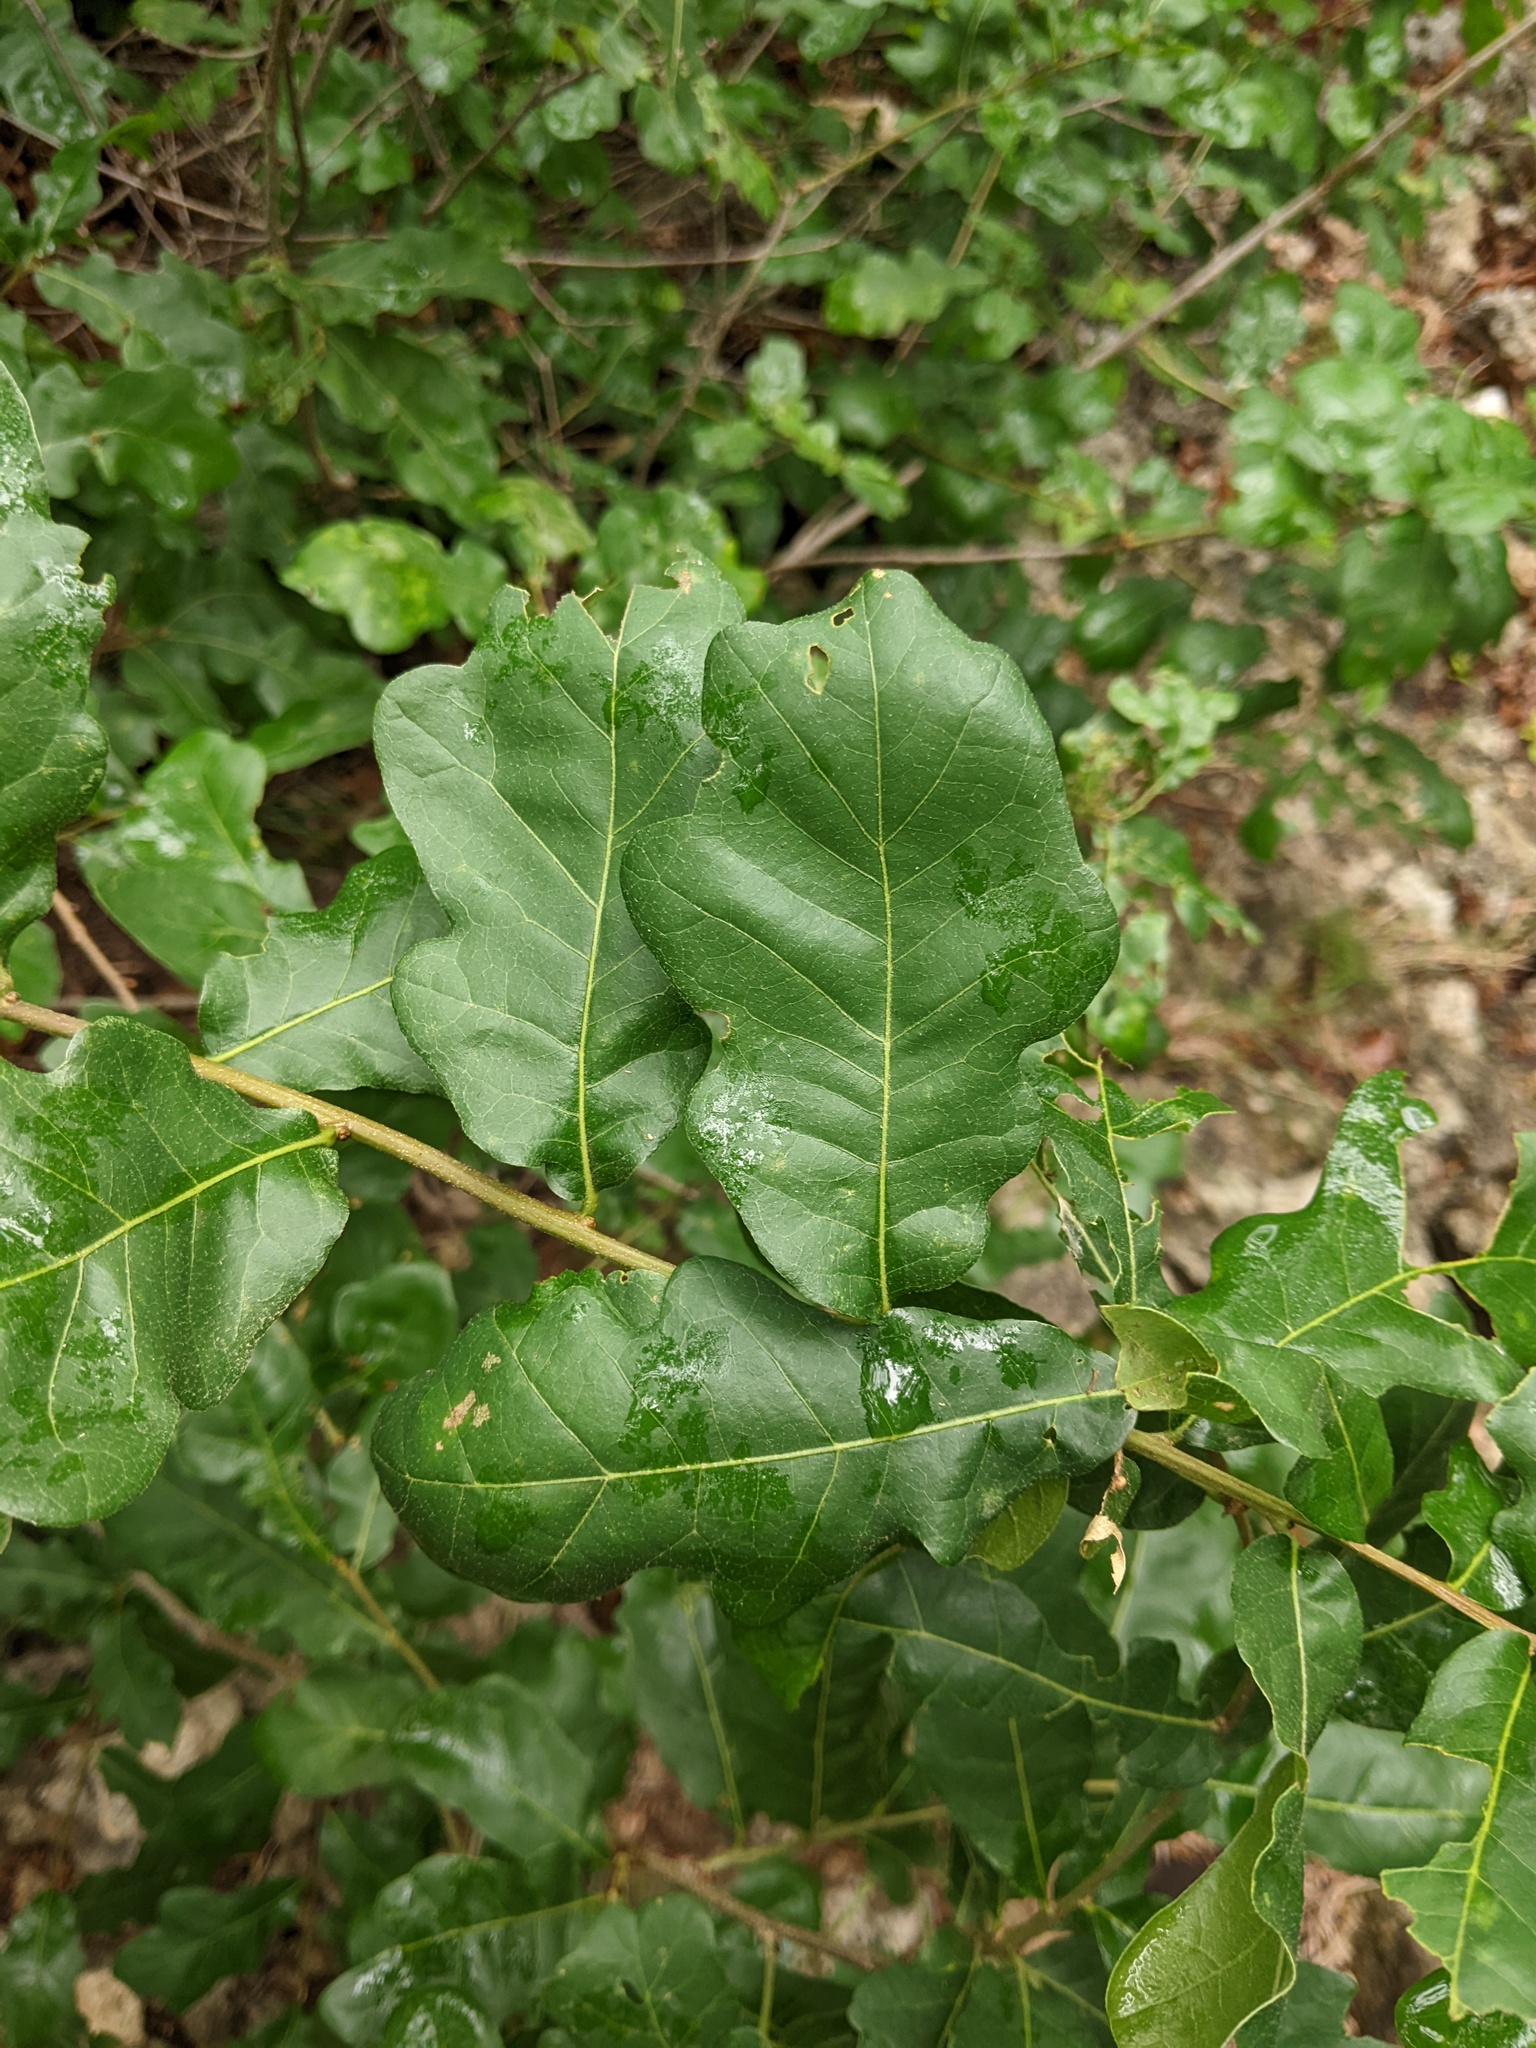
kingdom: Plantae
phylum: Tracheophyta
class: Magnoliopsida
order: Fagales
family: Fagaceae
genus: Quercus
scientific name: Quercus sinuata
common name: Durand oak
